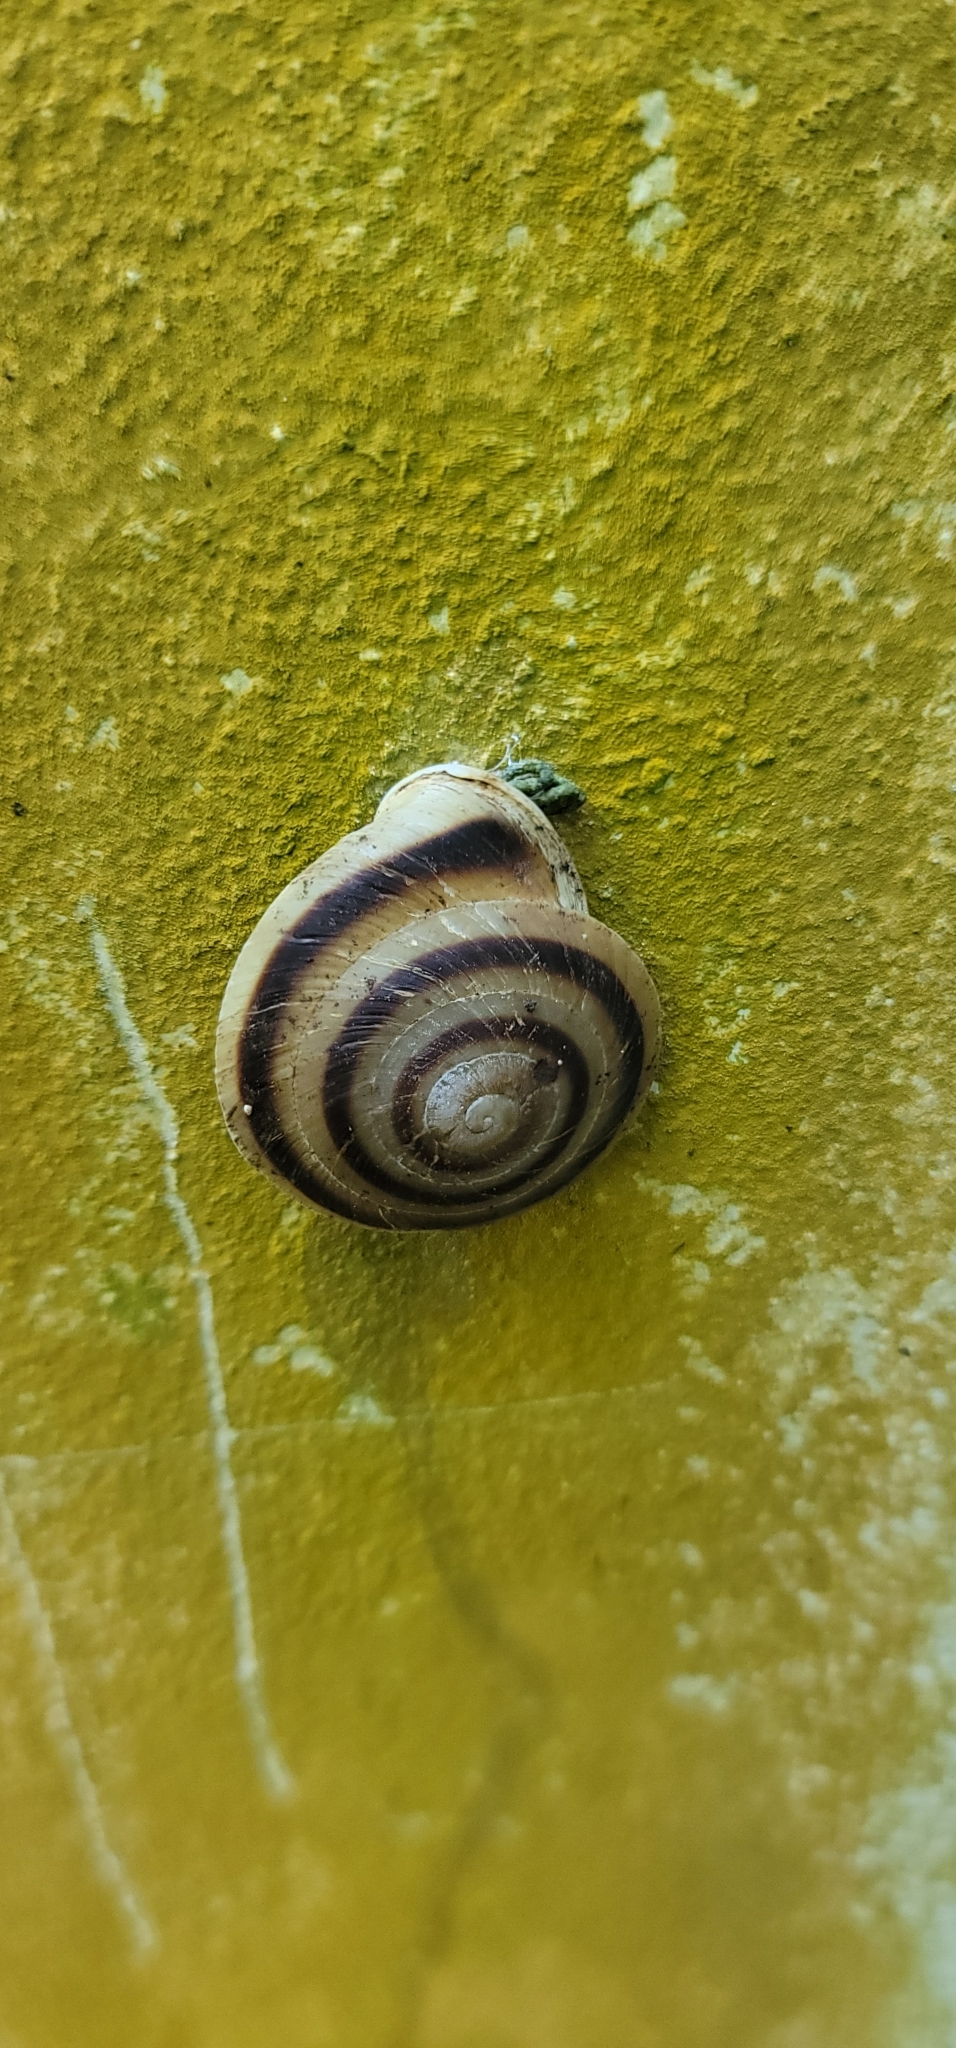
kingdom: Animalia
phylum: Mollusca
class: Gastropoda
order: Stylommatophora
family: Solaropsidae
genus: Caracolus
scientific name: Caracolus marginella
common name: Banded caracol
